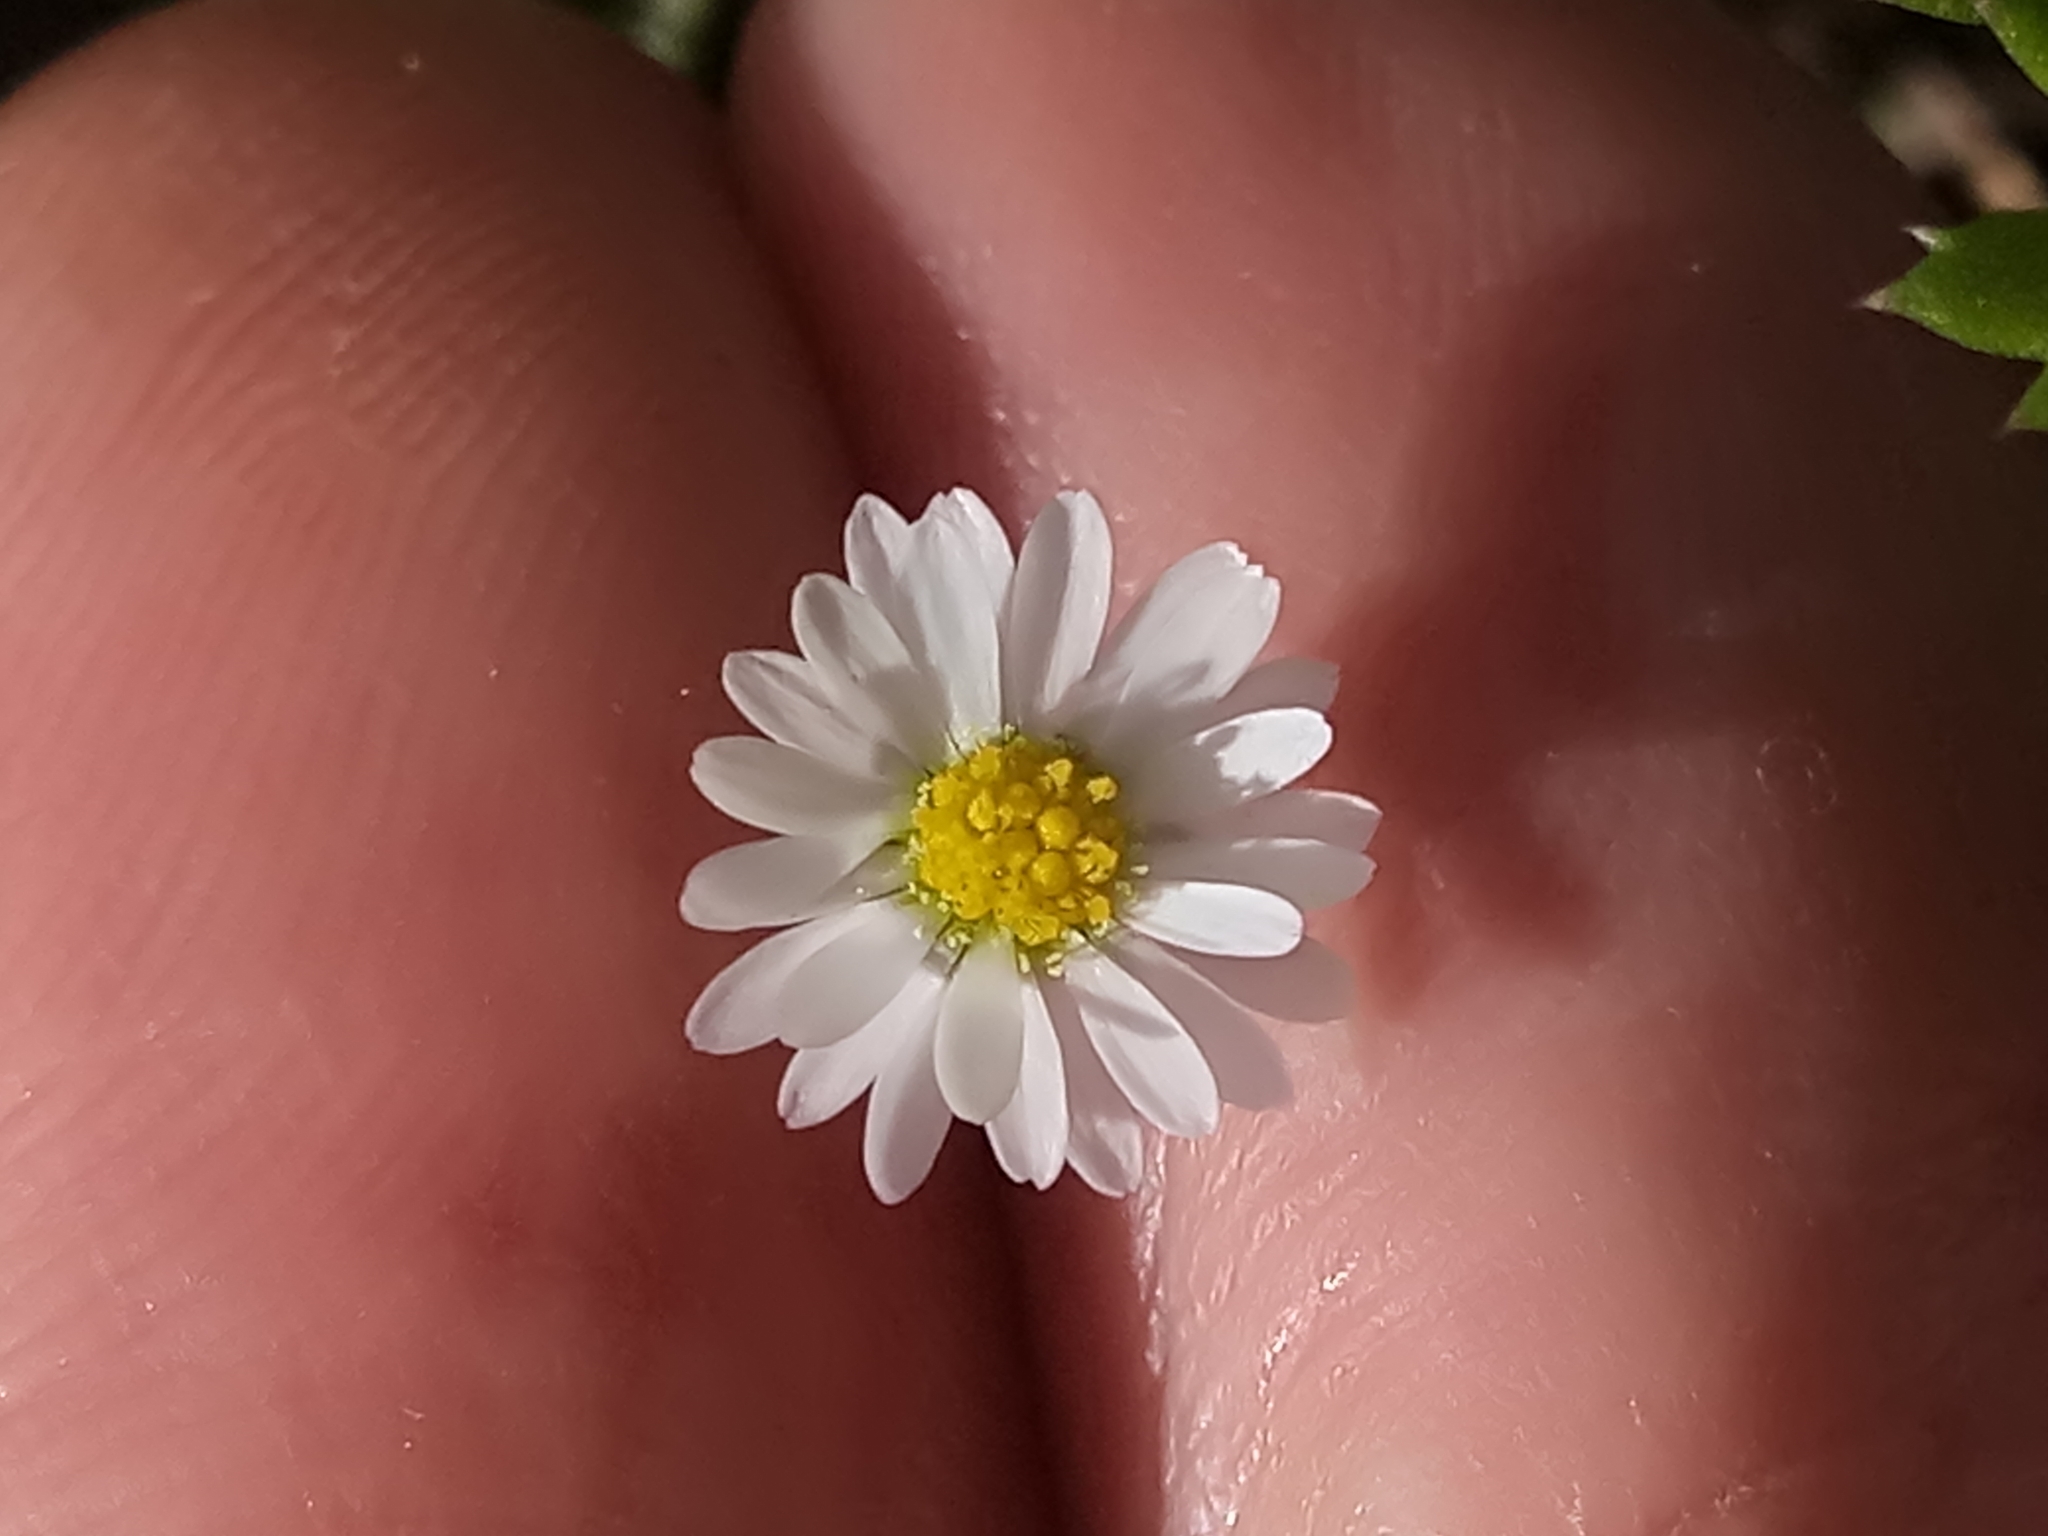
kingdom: Plantae
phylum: Tracheophyta
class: Magnoliopsida
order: Asterales
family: Asteraceae
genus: Bellis
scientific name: Bellis annua
